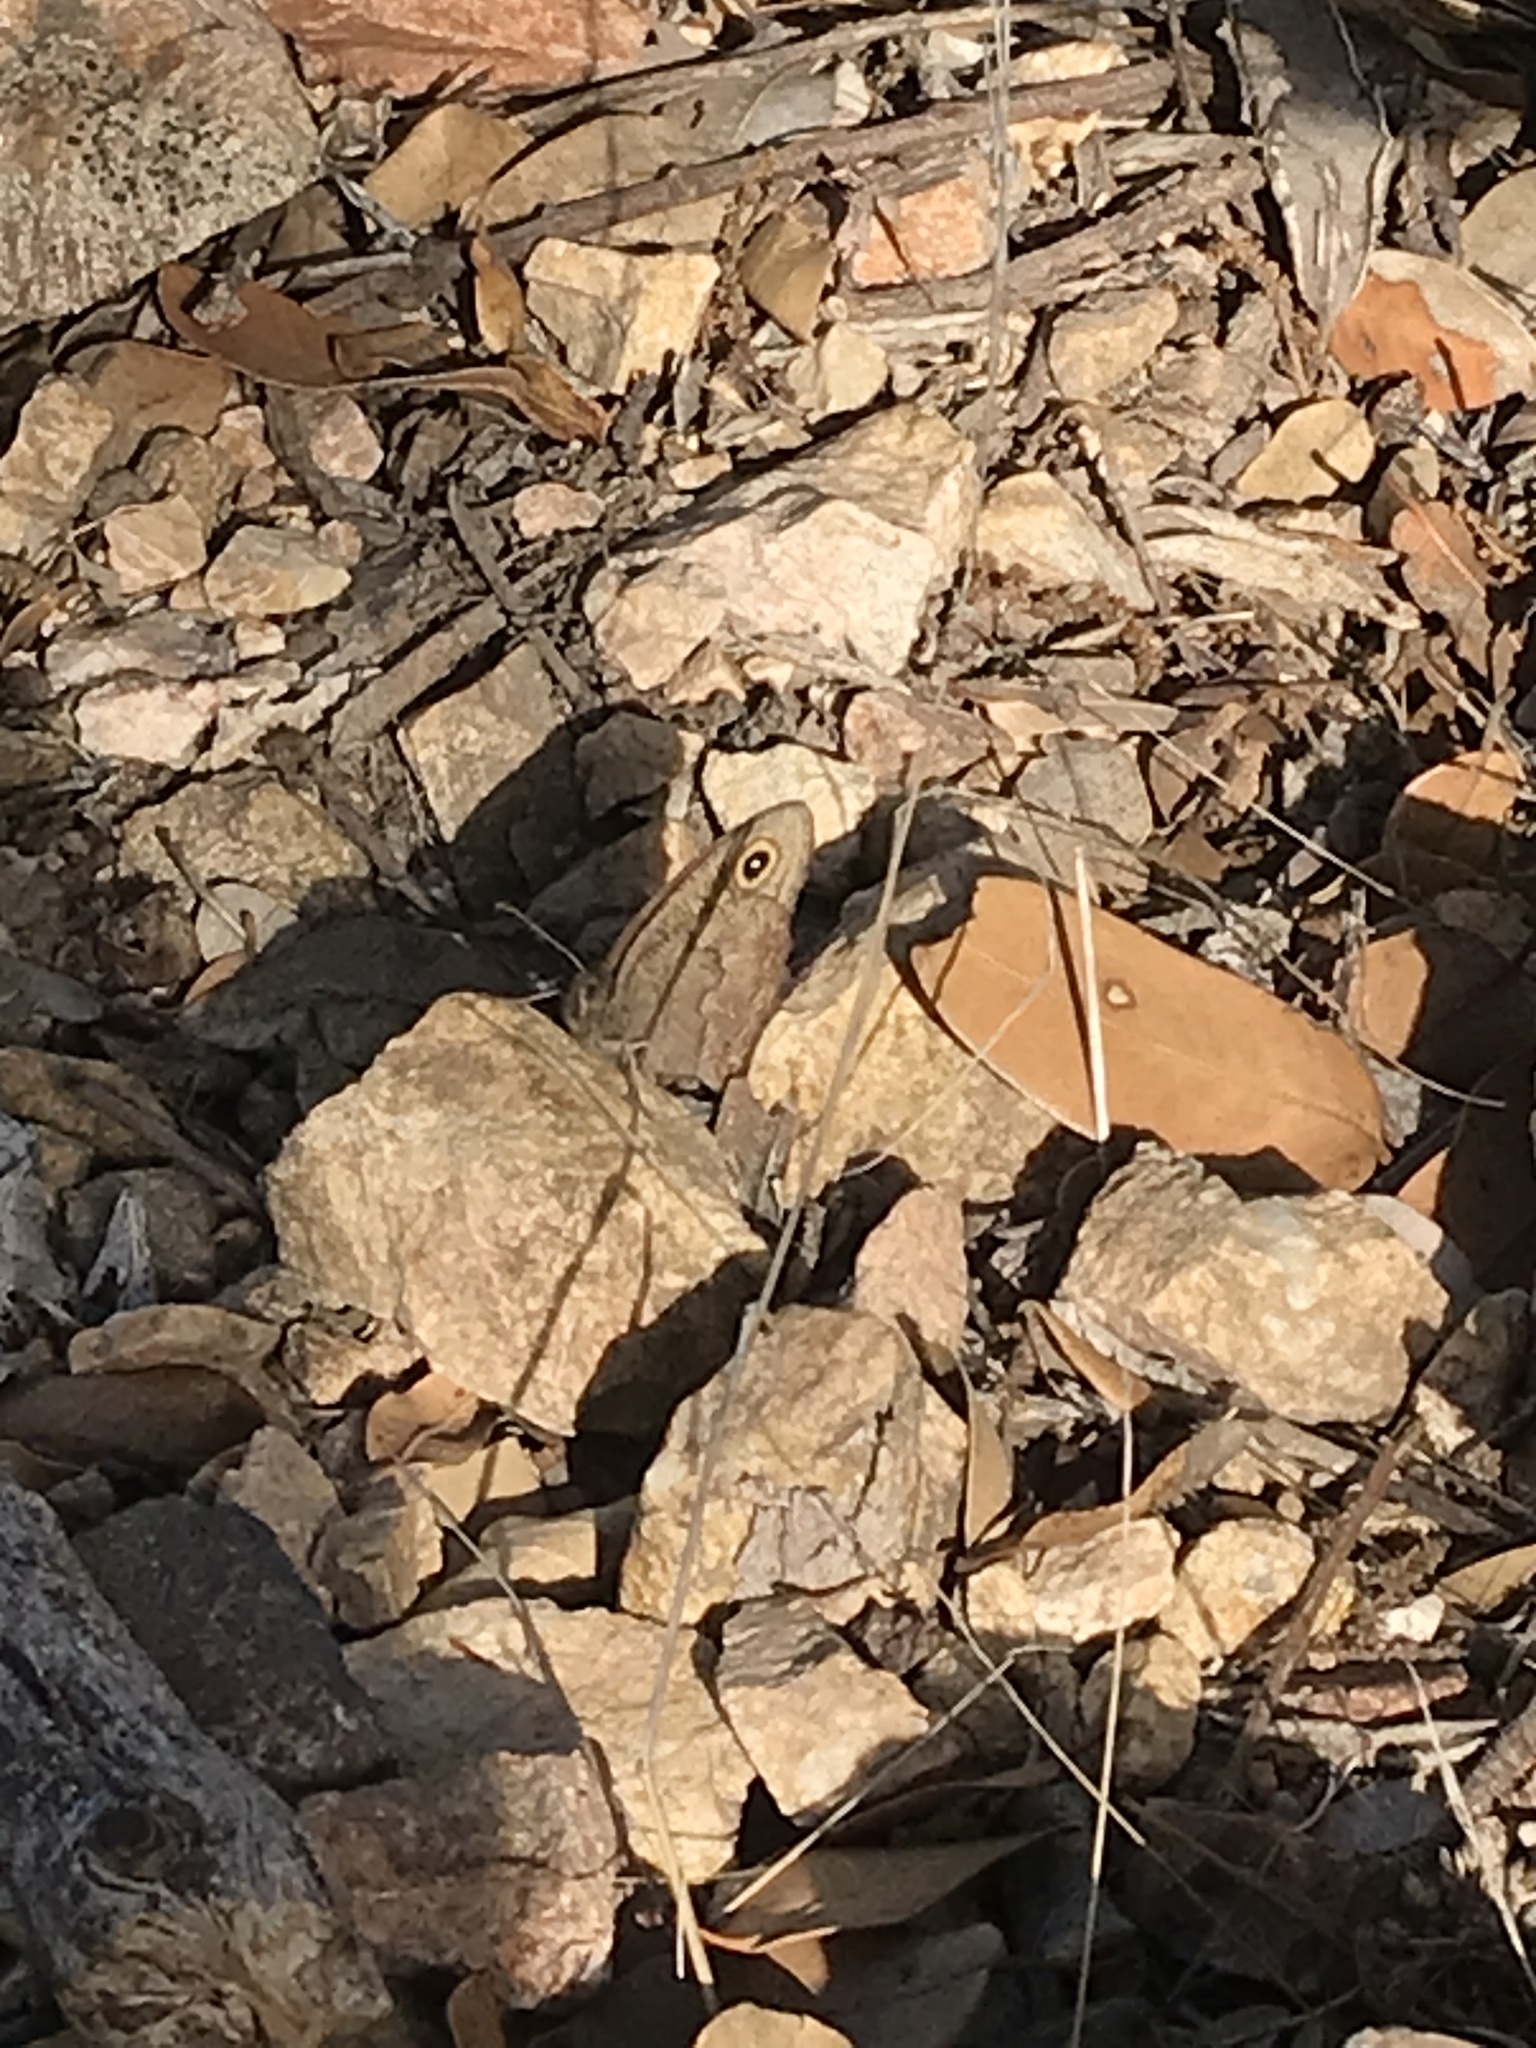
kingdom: Animalia
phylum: Arthropoda
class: Insecta
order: Lepidoptera
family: Nymphalidae
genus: Cercyonis
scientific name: Cercyonis sthenele
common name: Great basin wood-nymph
